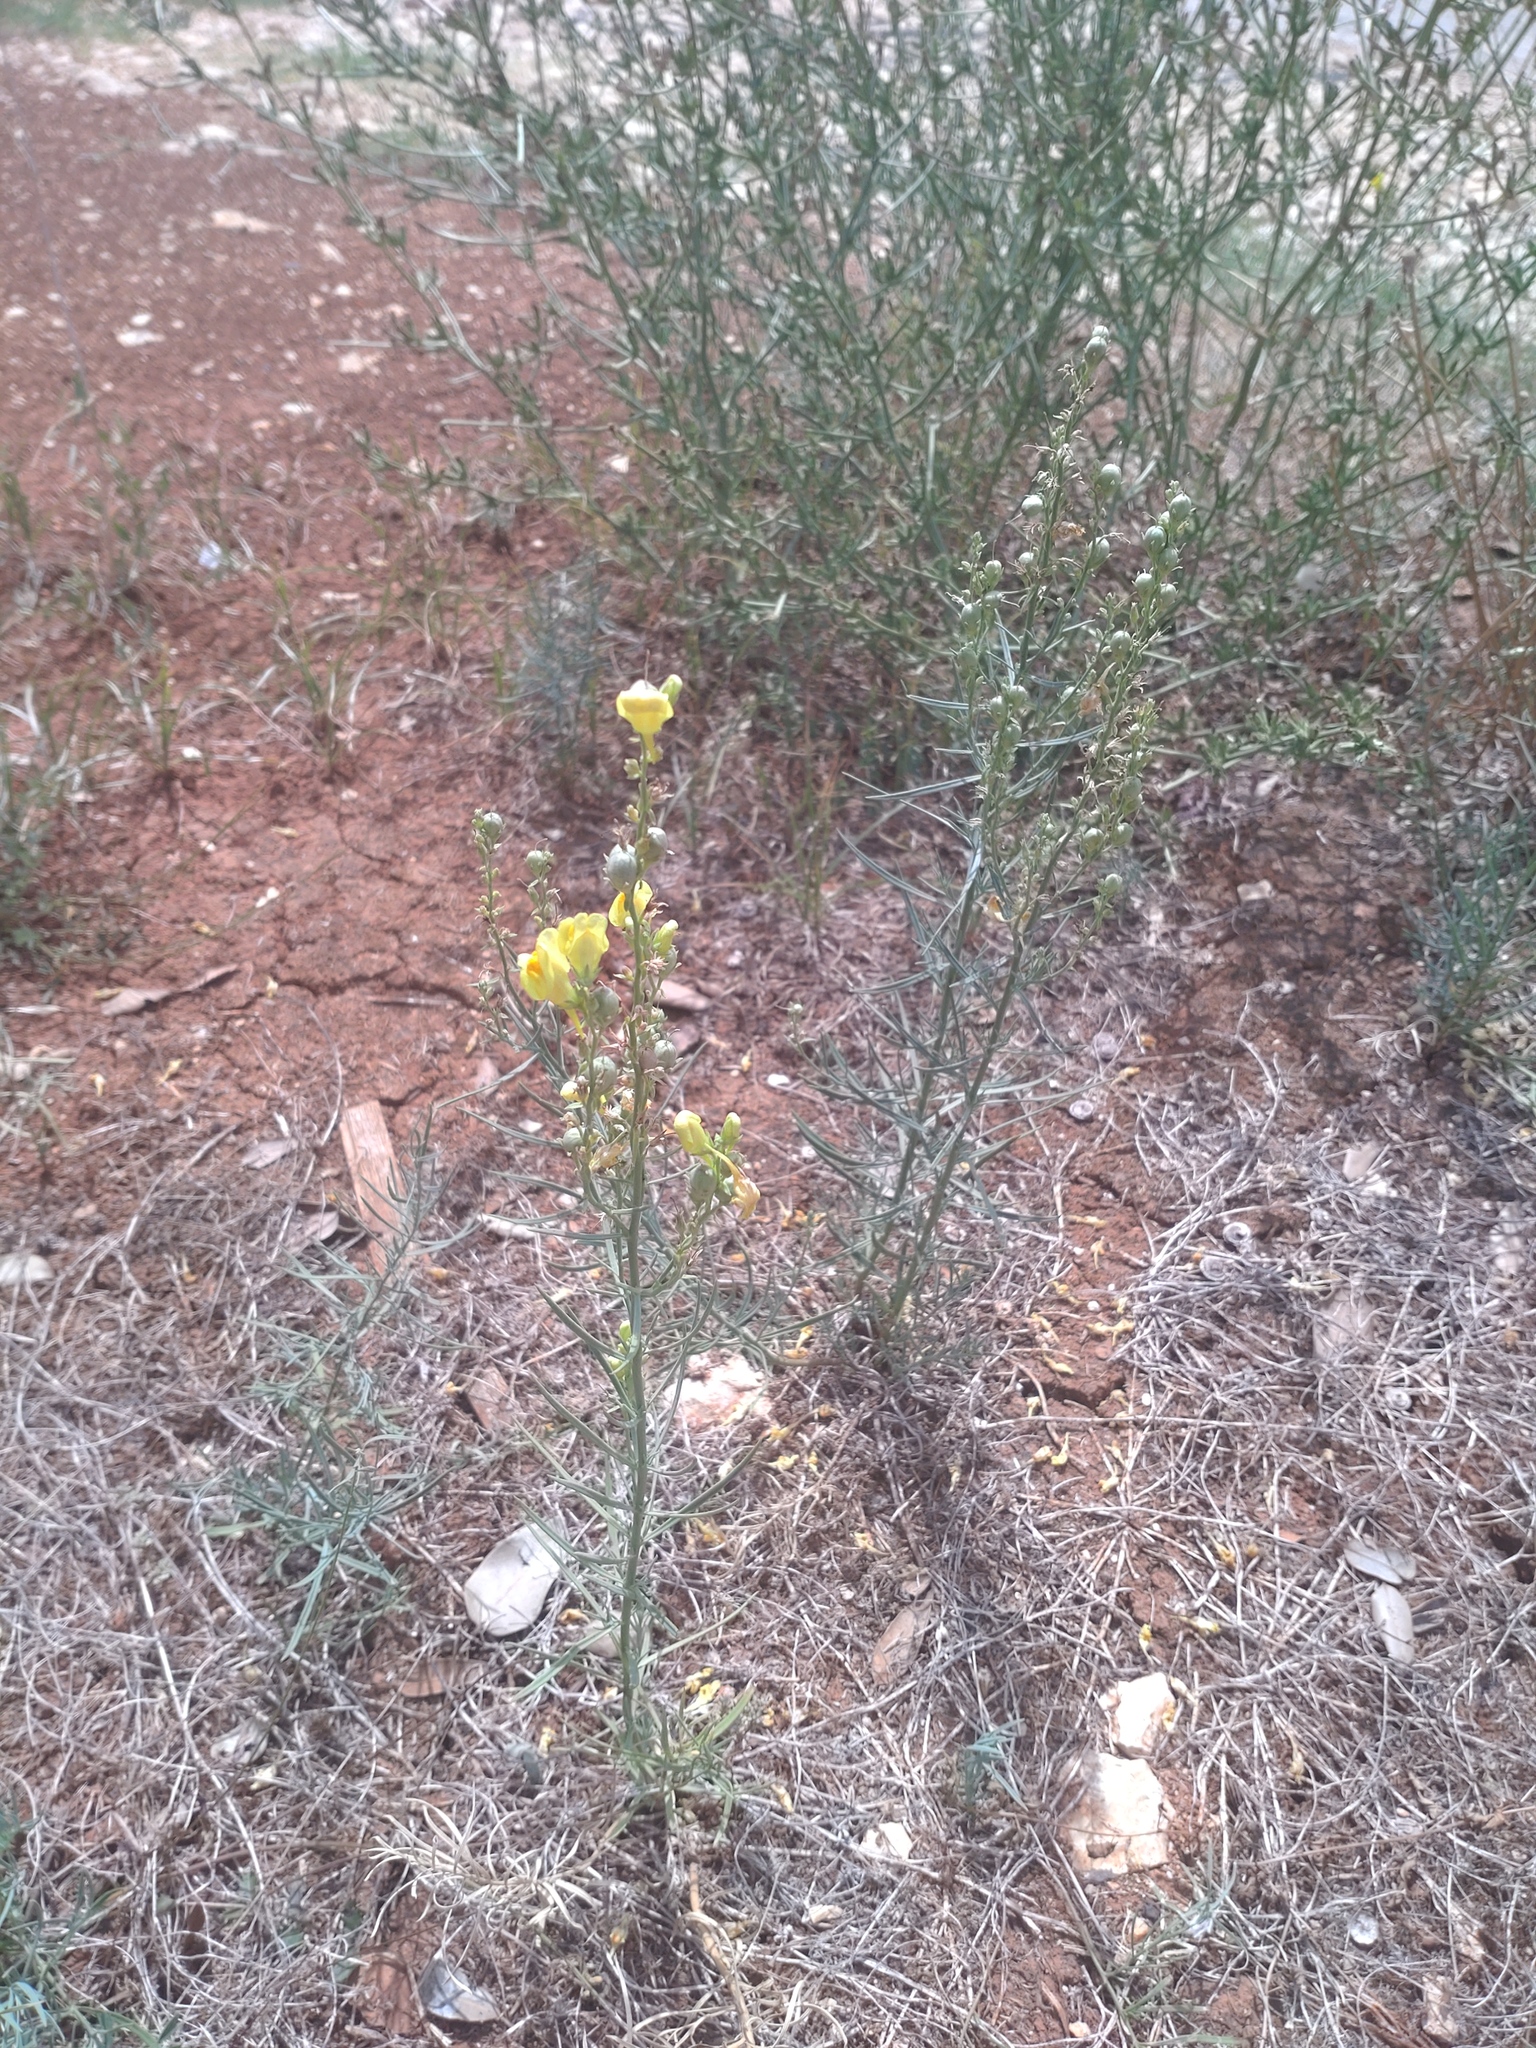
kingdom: Plantae
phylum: Tracheophyta
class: Magnoliopsida
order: Lamiales
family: Plantaginaceae
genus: Linaria
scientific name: Linaria vulgaris
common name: Butter and eggs
